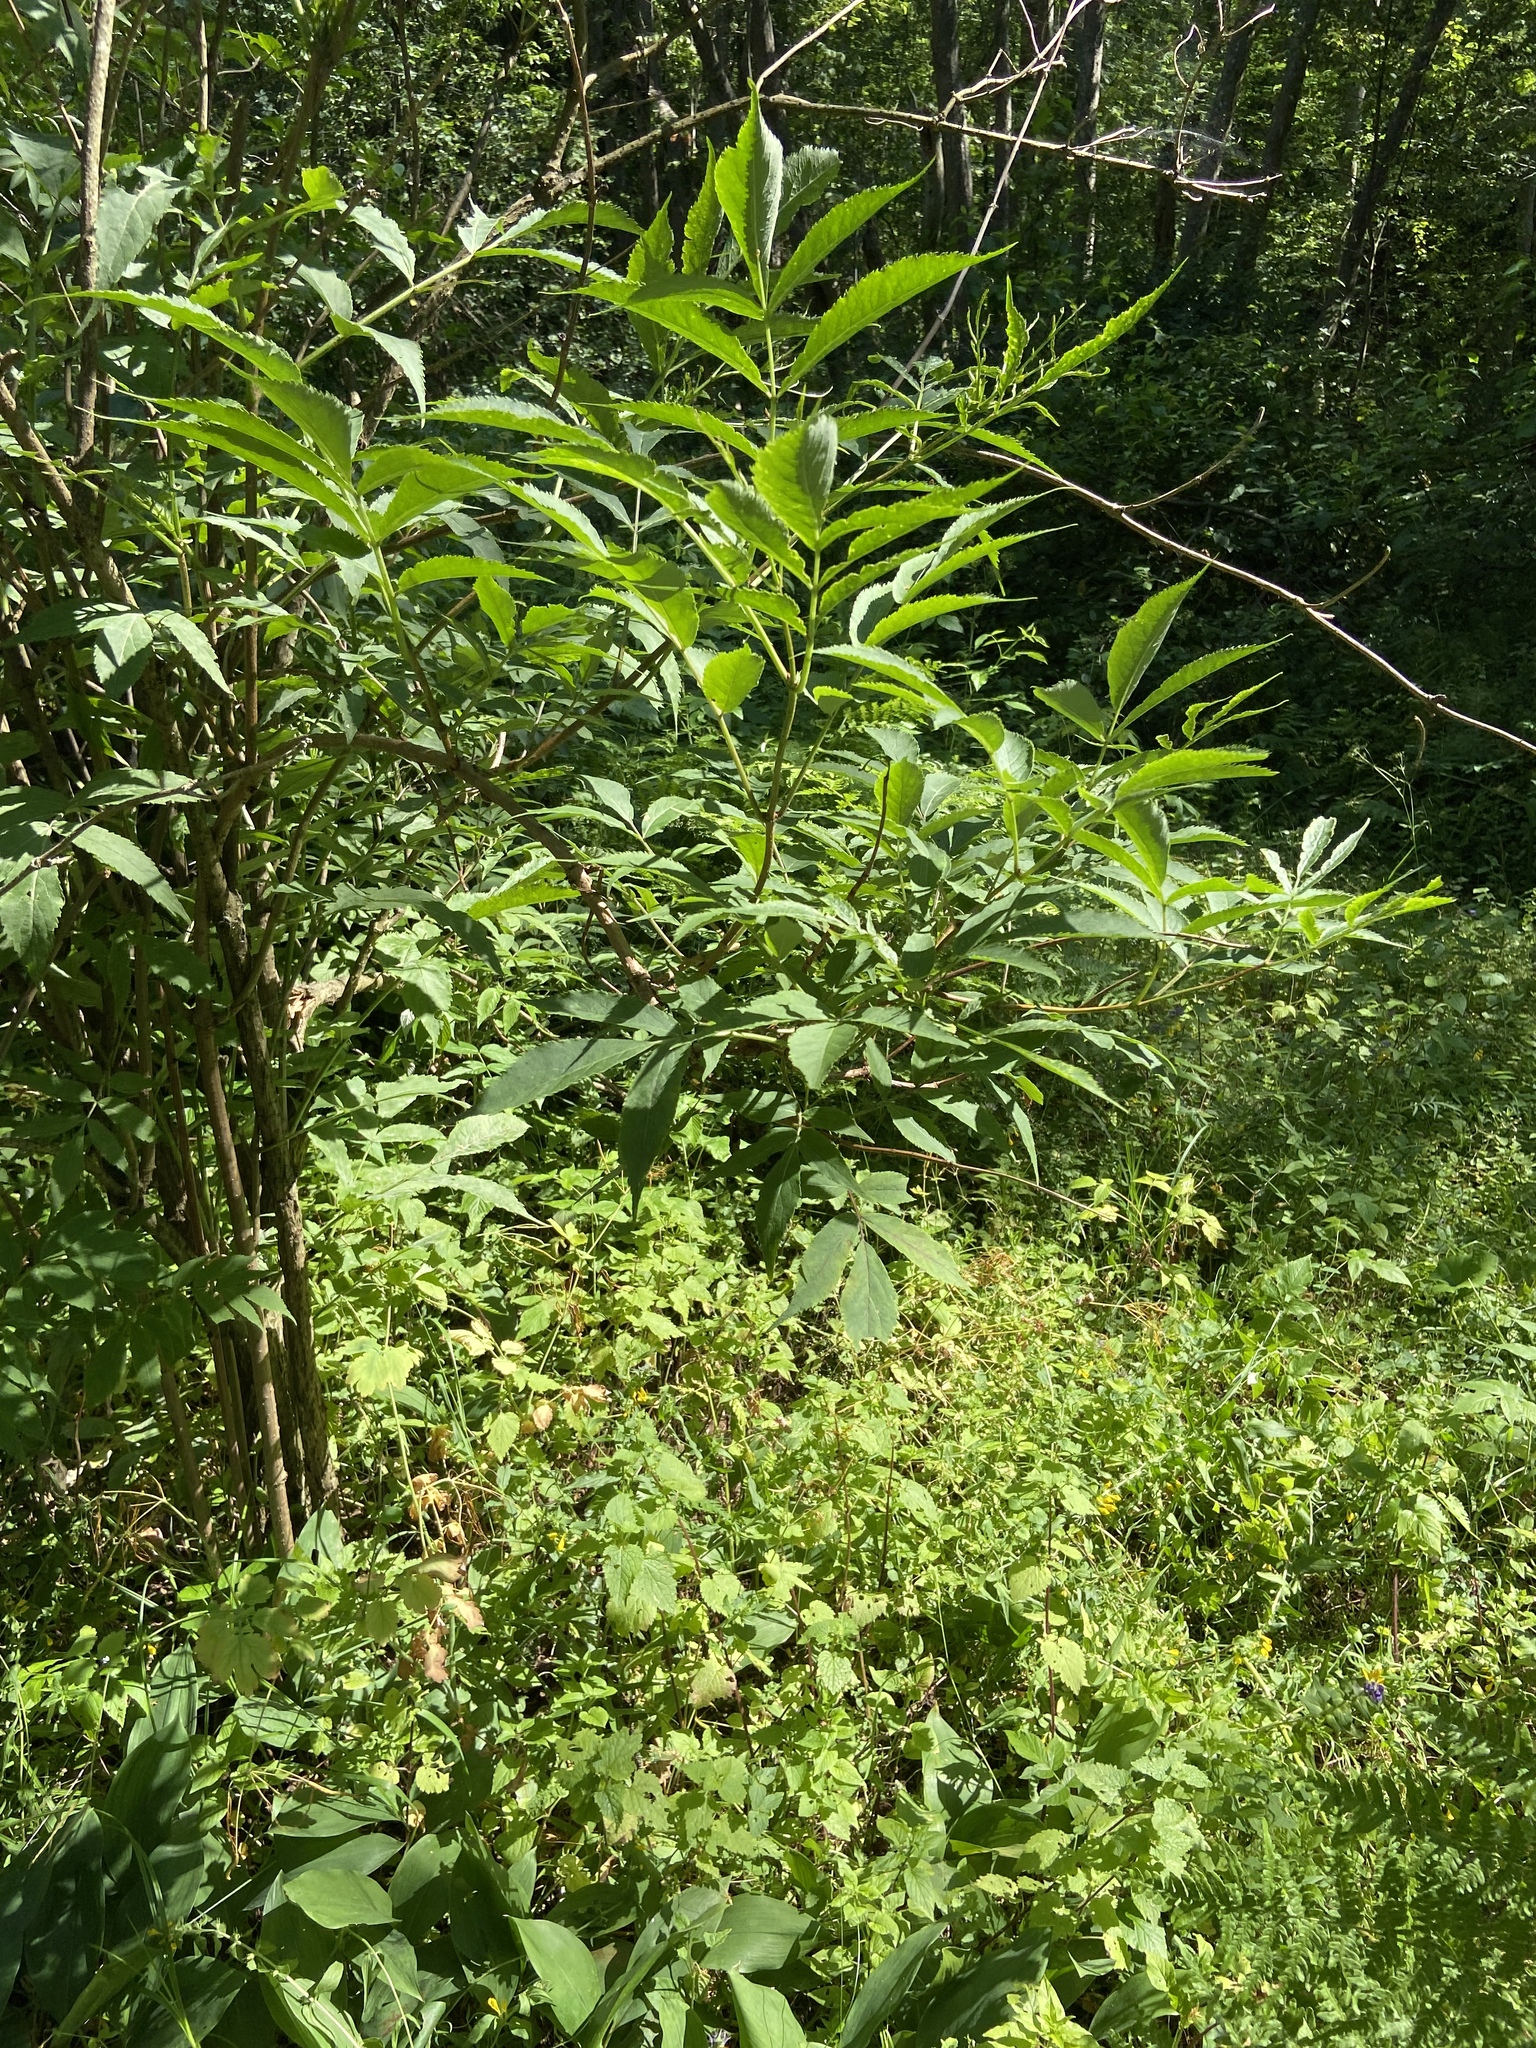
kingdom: Plantae
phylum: Tracheophyta
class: Magnoliopsida
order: Dipsacales
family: Viburnaceae
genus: Sambucus
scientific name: Sambucus racemosa
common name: Red-berried elder
